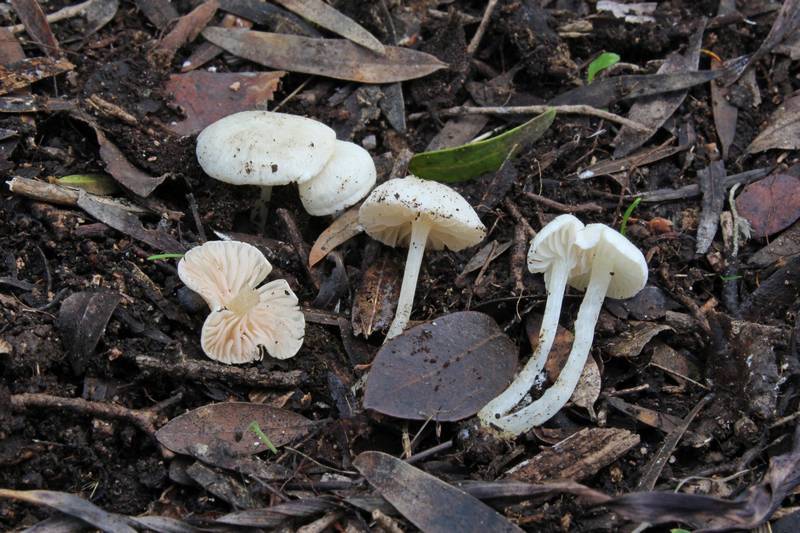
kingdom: Fungi
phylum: Basidiomycota
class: Agaricomycetes
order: Agaricales
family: Entolomataceae
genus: Entoloma
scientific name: Entoloma sericellum
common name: Cream pinkgill
